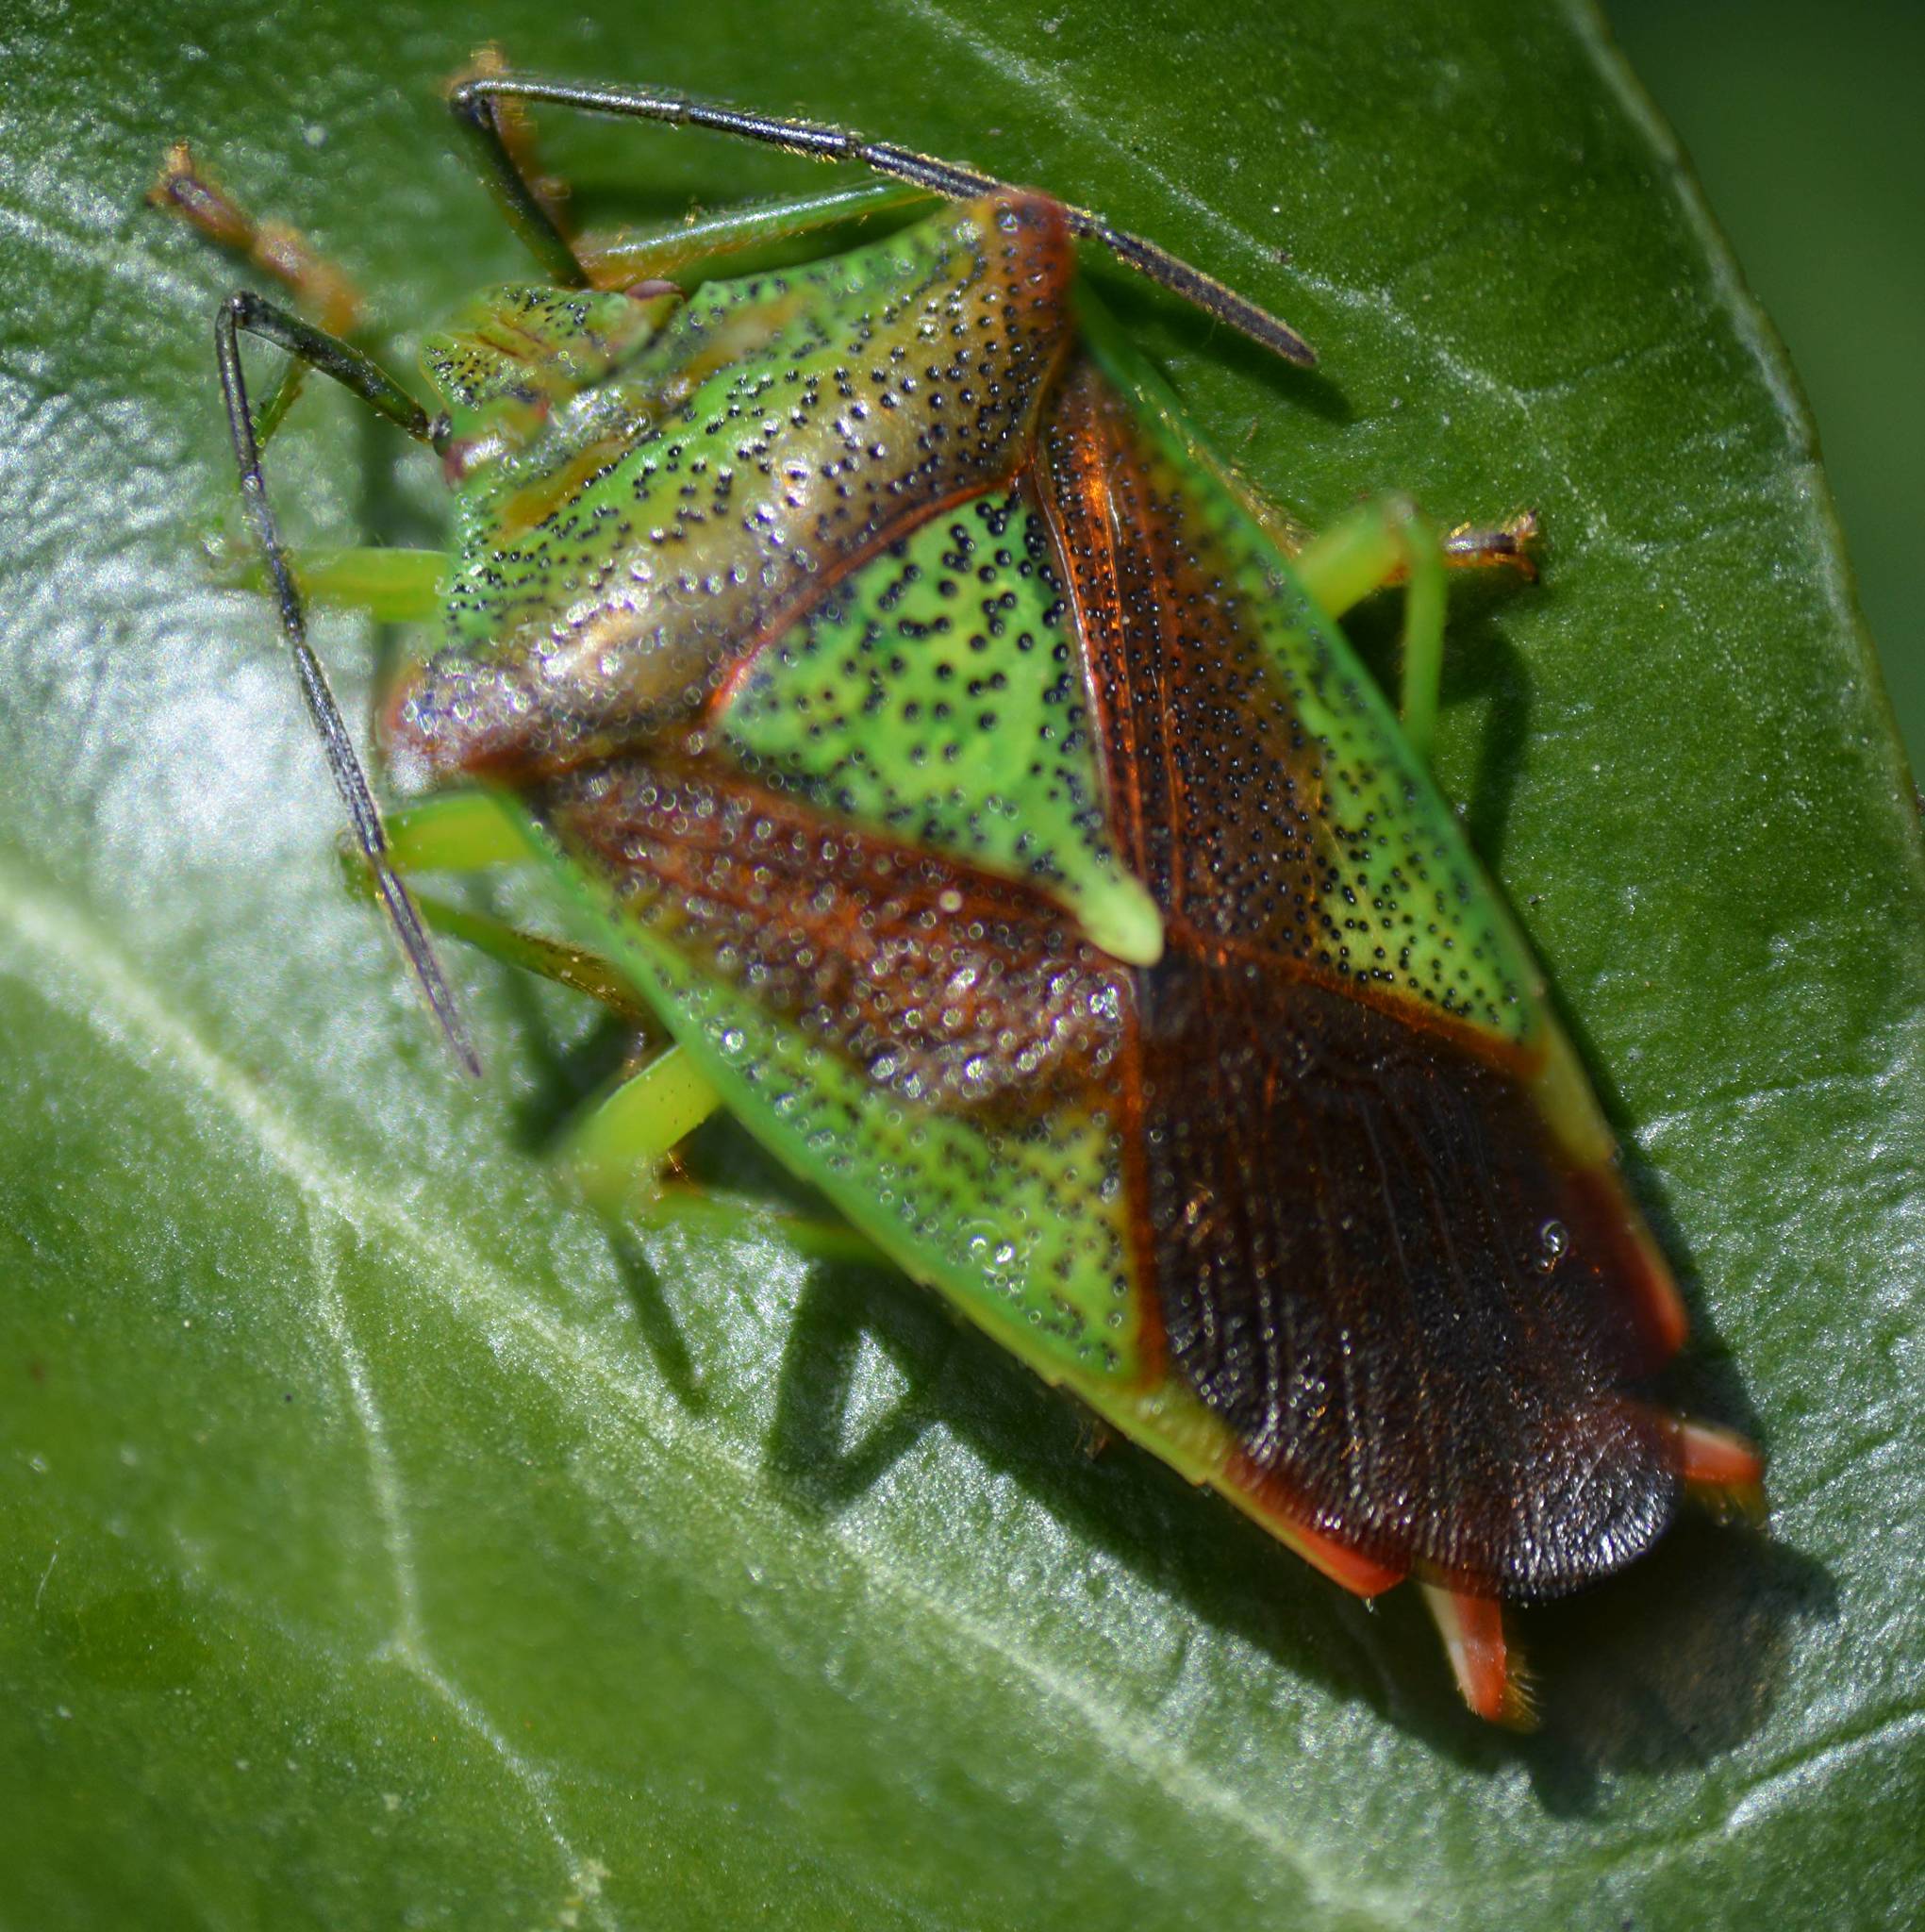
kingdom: Animalia
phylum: Arthropoda
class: Insecta
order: Hemiptera
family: Acanthosomatidae
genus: Acanthosoma
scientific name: Acanthosoma haemorrhoidale
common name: Hawthorn shieldbug
